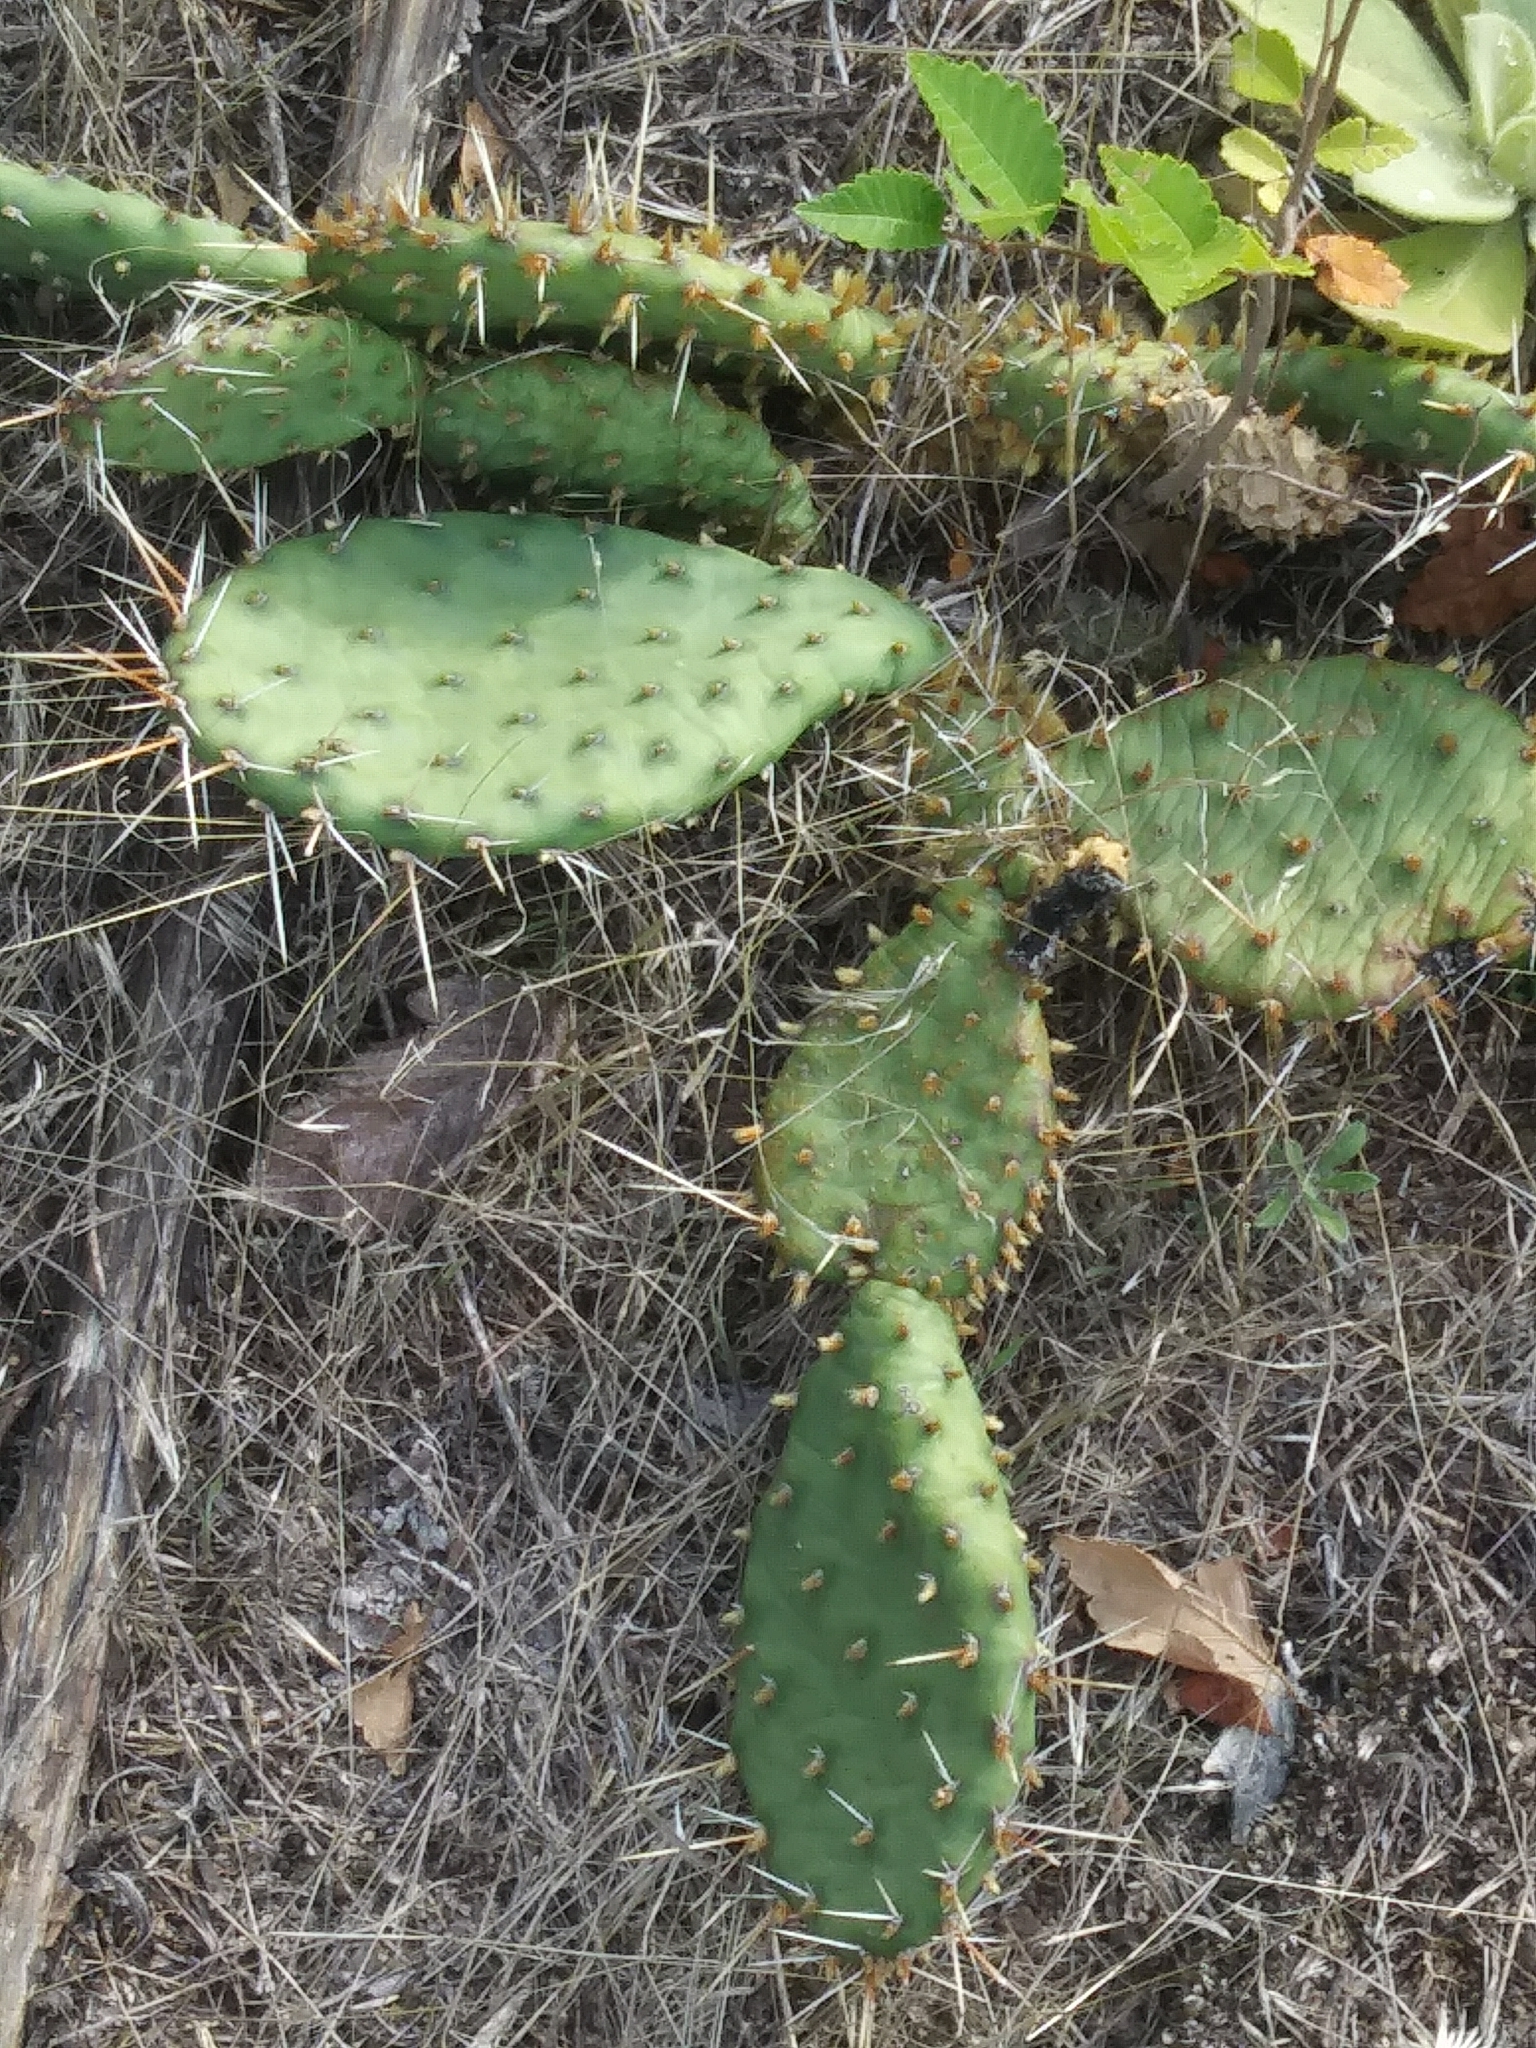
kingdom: Plantae
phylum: Tracheophyta
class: Magnoliopsida
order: Caryophyllales
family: Cactaceae
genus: Opuntia
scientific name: Opuntia macrorhiza
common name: Grassland pricklypear
